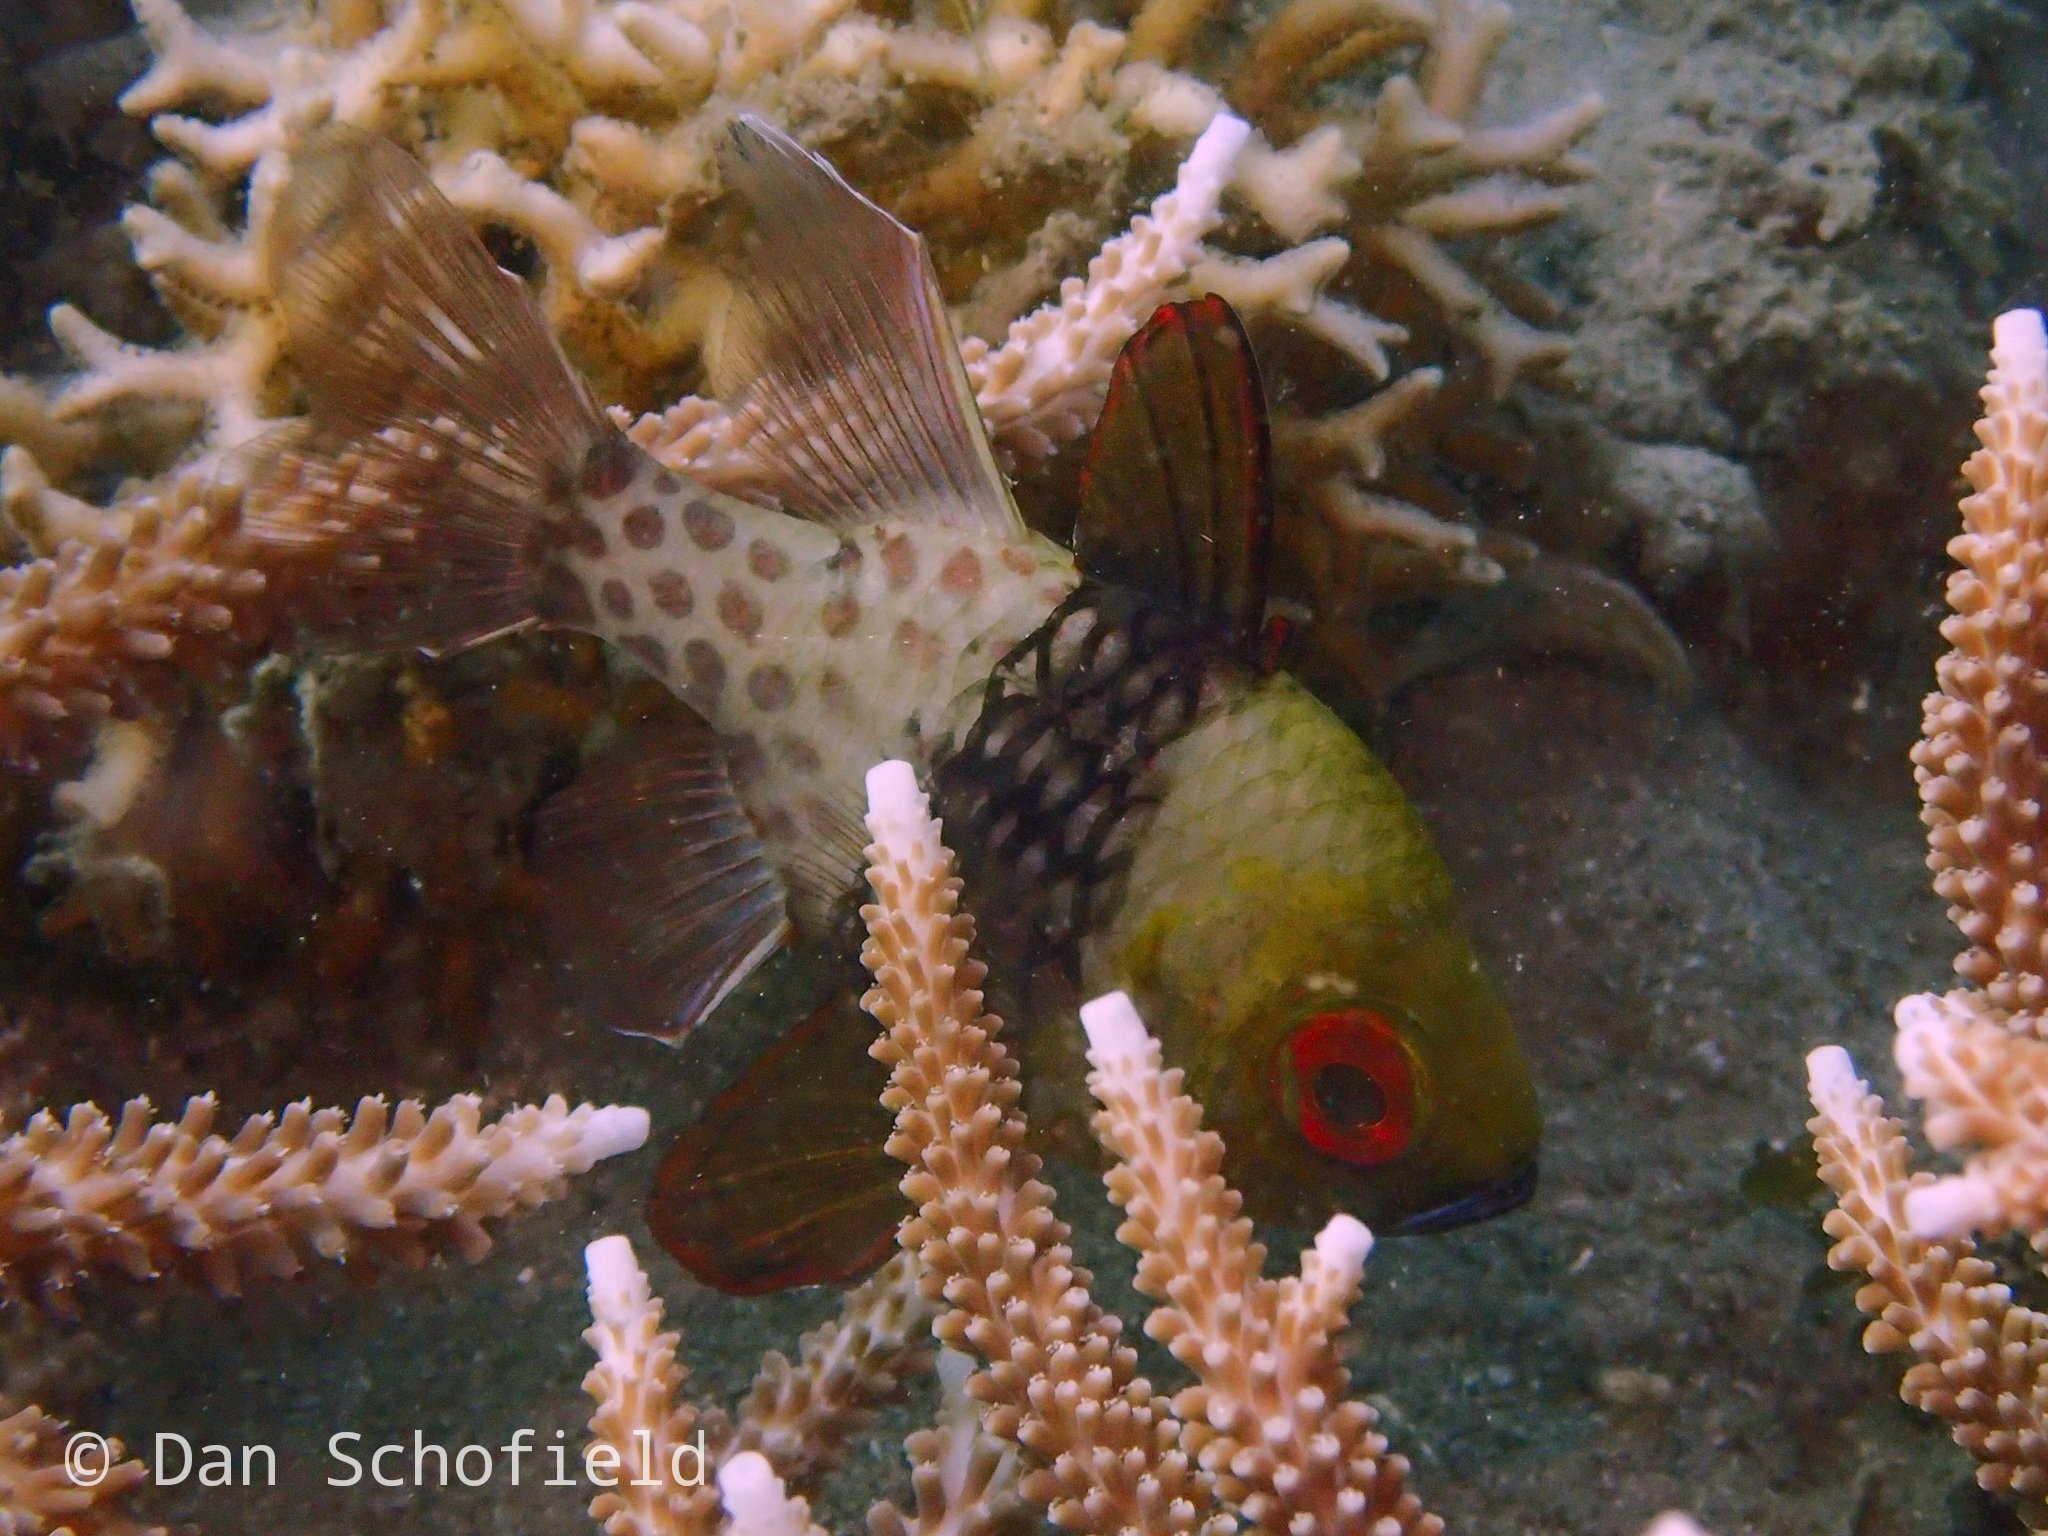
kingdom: Animalia
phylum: Chordata
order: Perciformes
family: Apogonidae
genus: Sphaeramia
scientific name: Sphaeramia nematoptera
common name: Pajama cardinalfish
